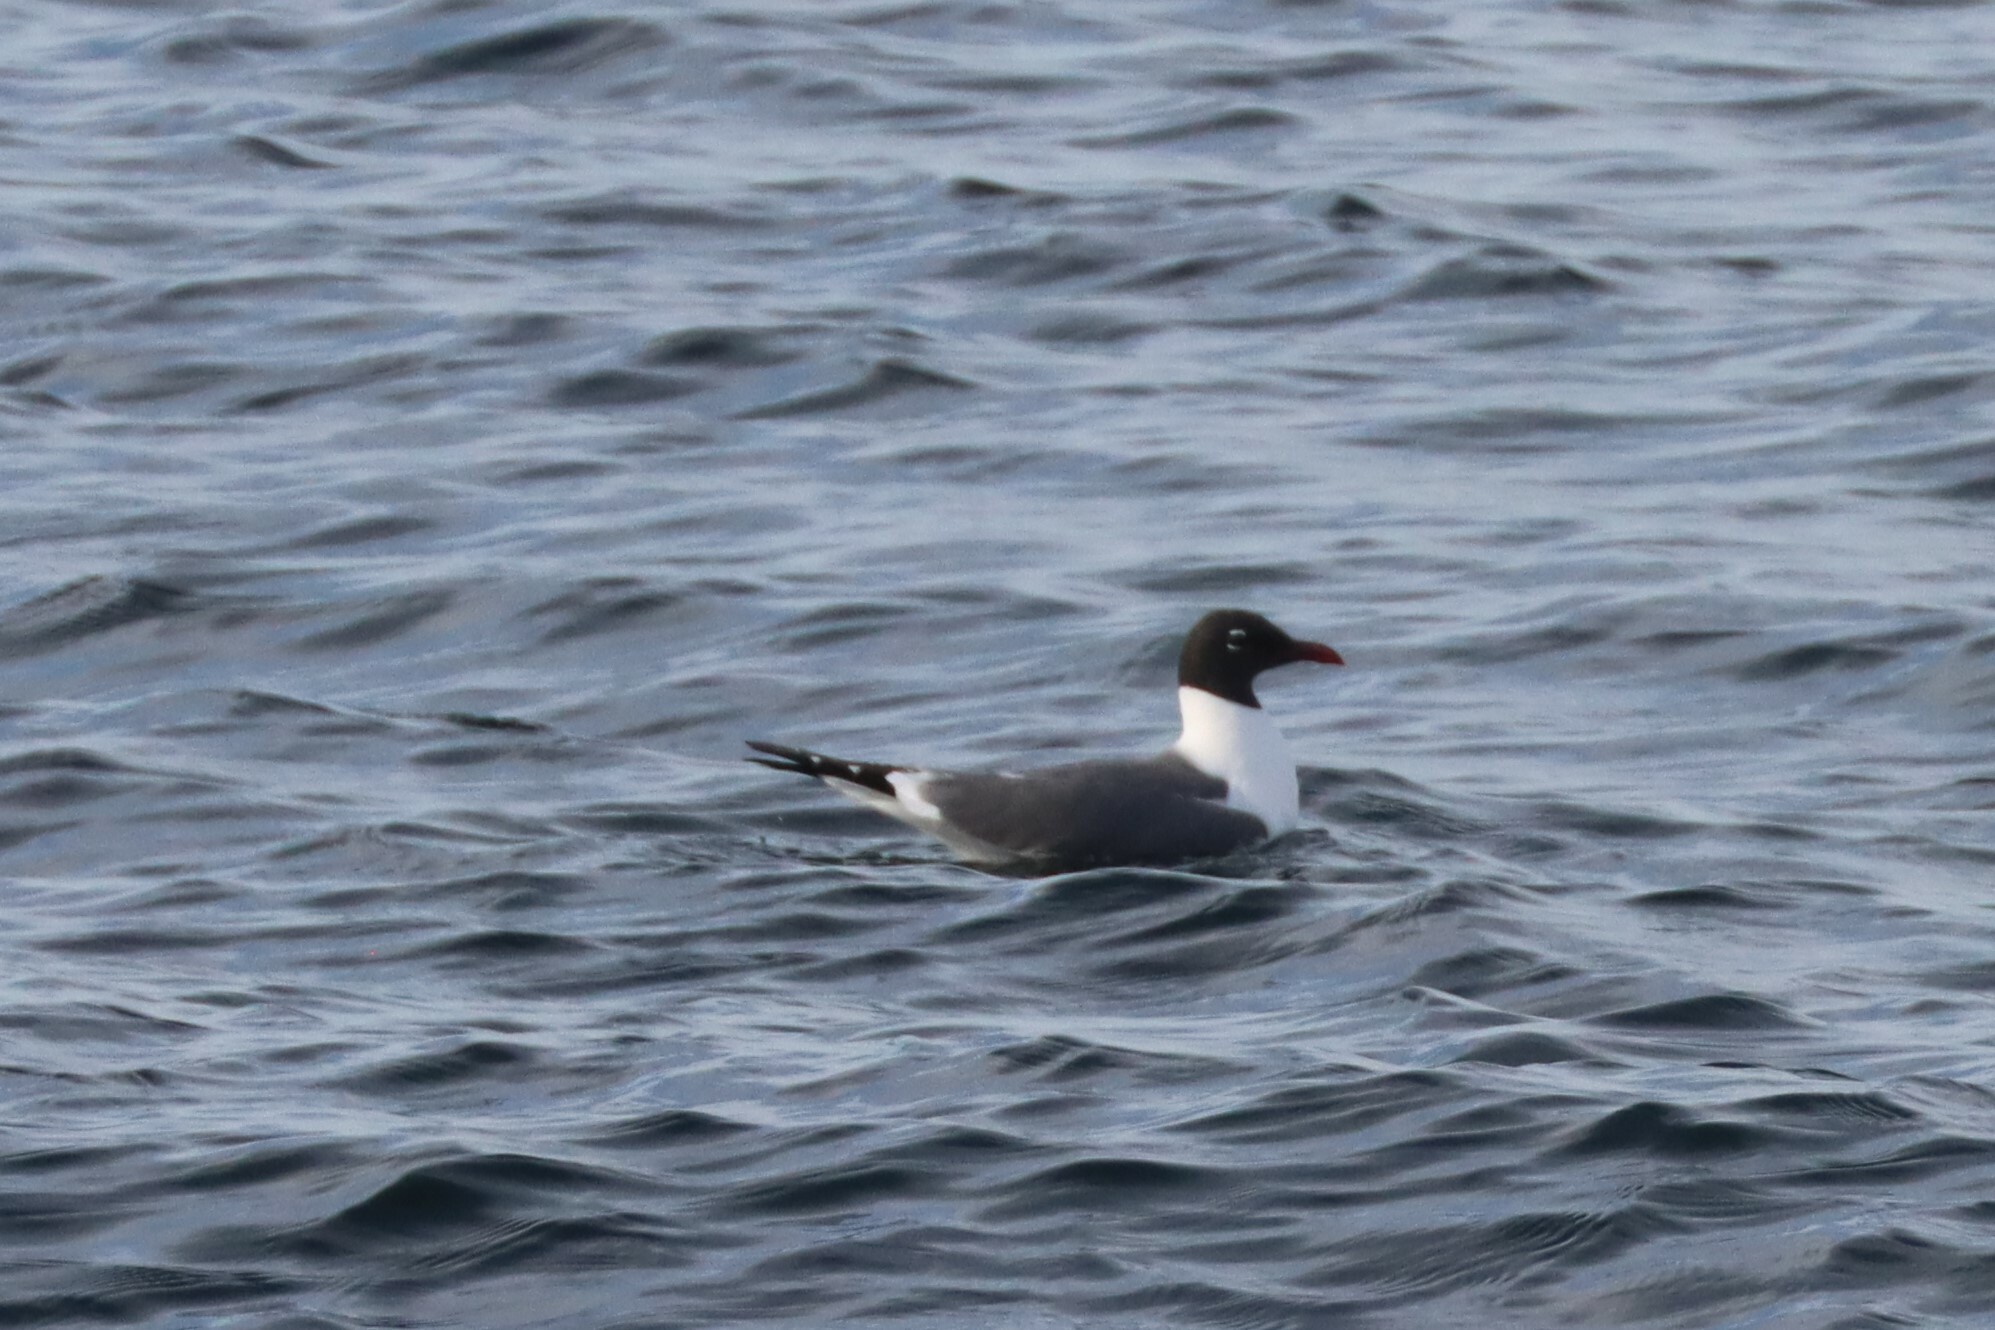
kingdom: Animalia
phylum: Chordata
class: Aves
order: Charadriiformes
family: Laridae
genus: Leucophaeus
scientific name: Leucophaeus atricilla
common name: Laughing gull
